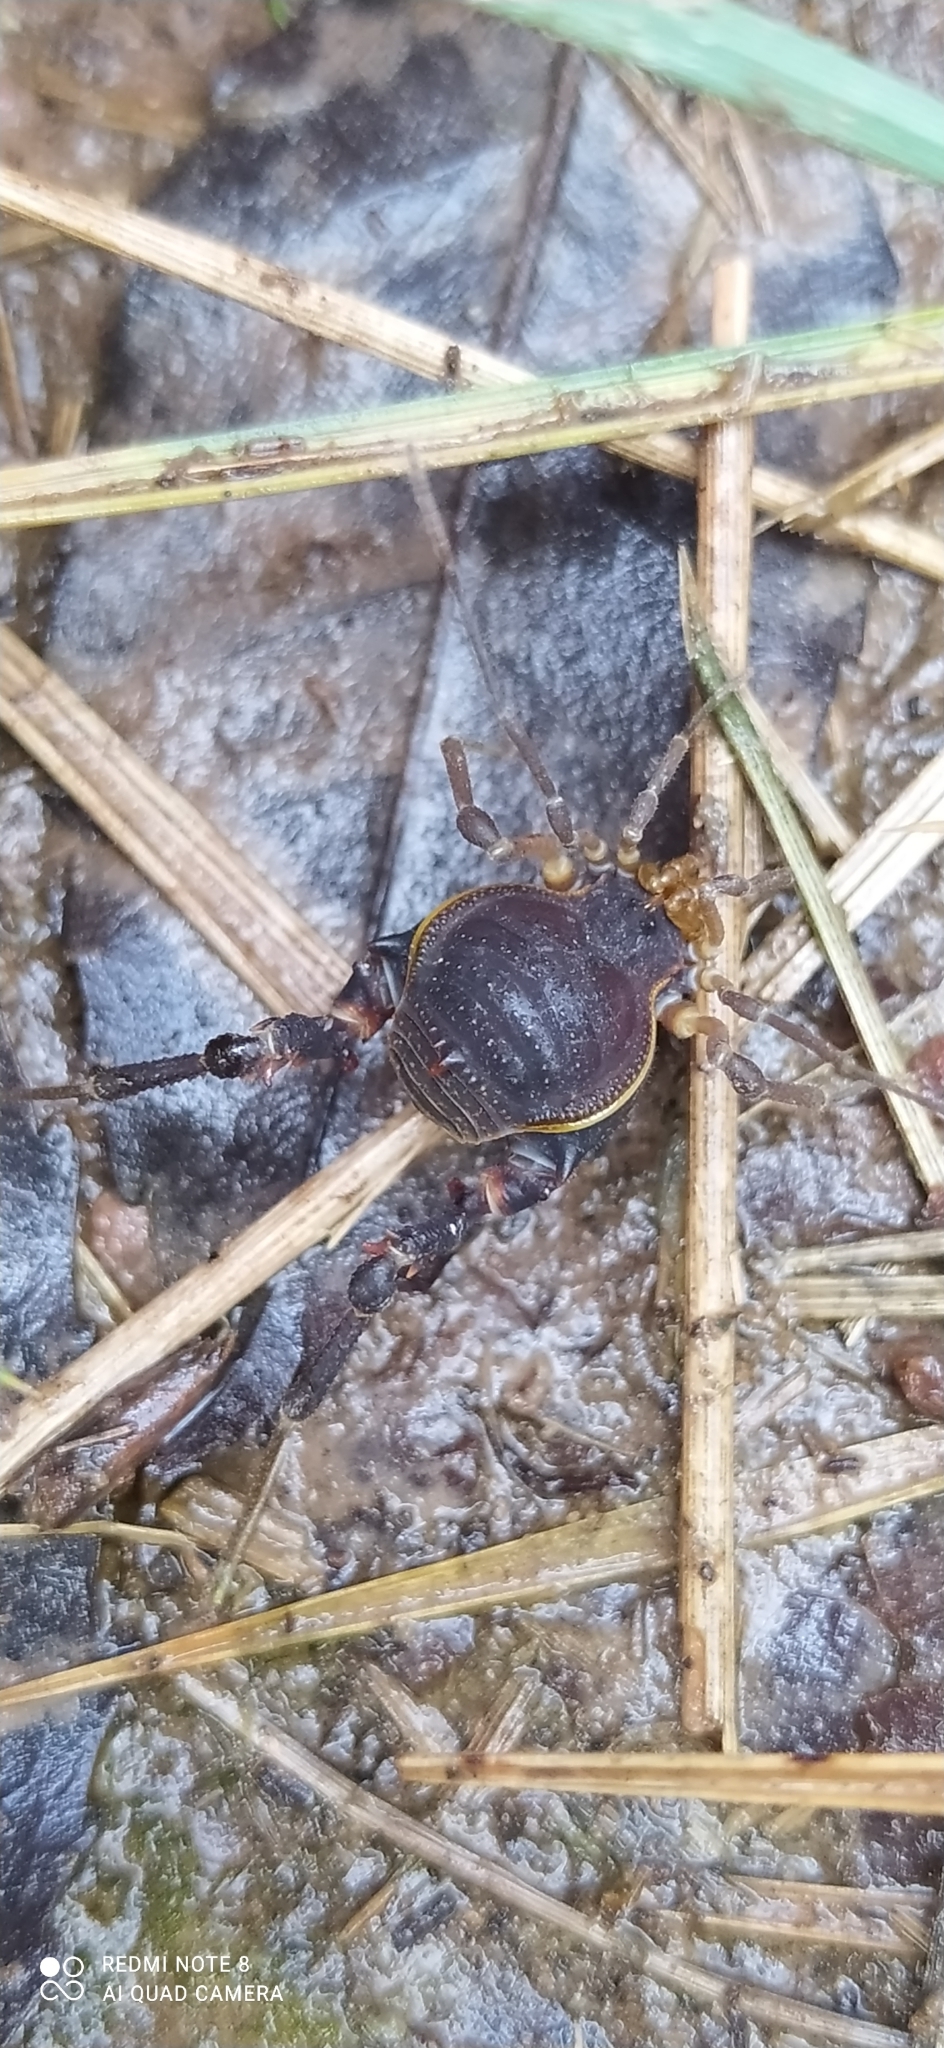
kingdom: Animalia
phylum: Arthropoda
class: Arachnida
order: Opiliones
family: Gonyleptidae
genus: Acanthopachylus
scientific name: Acanthopachylus robustus
